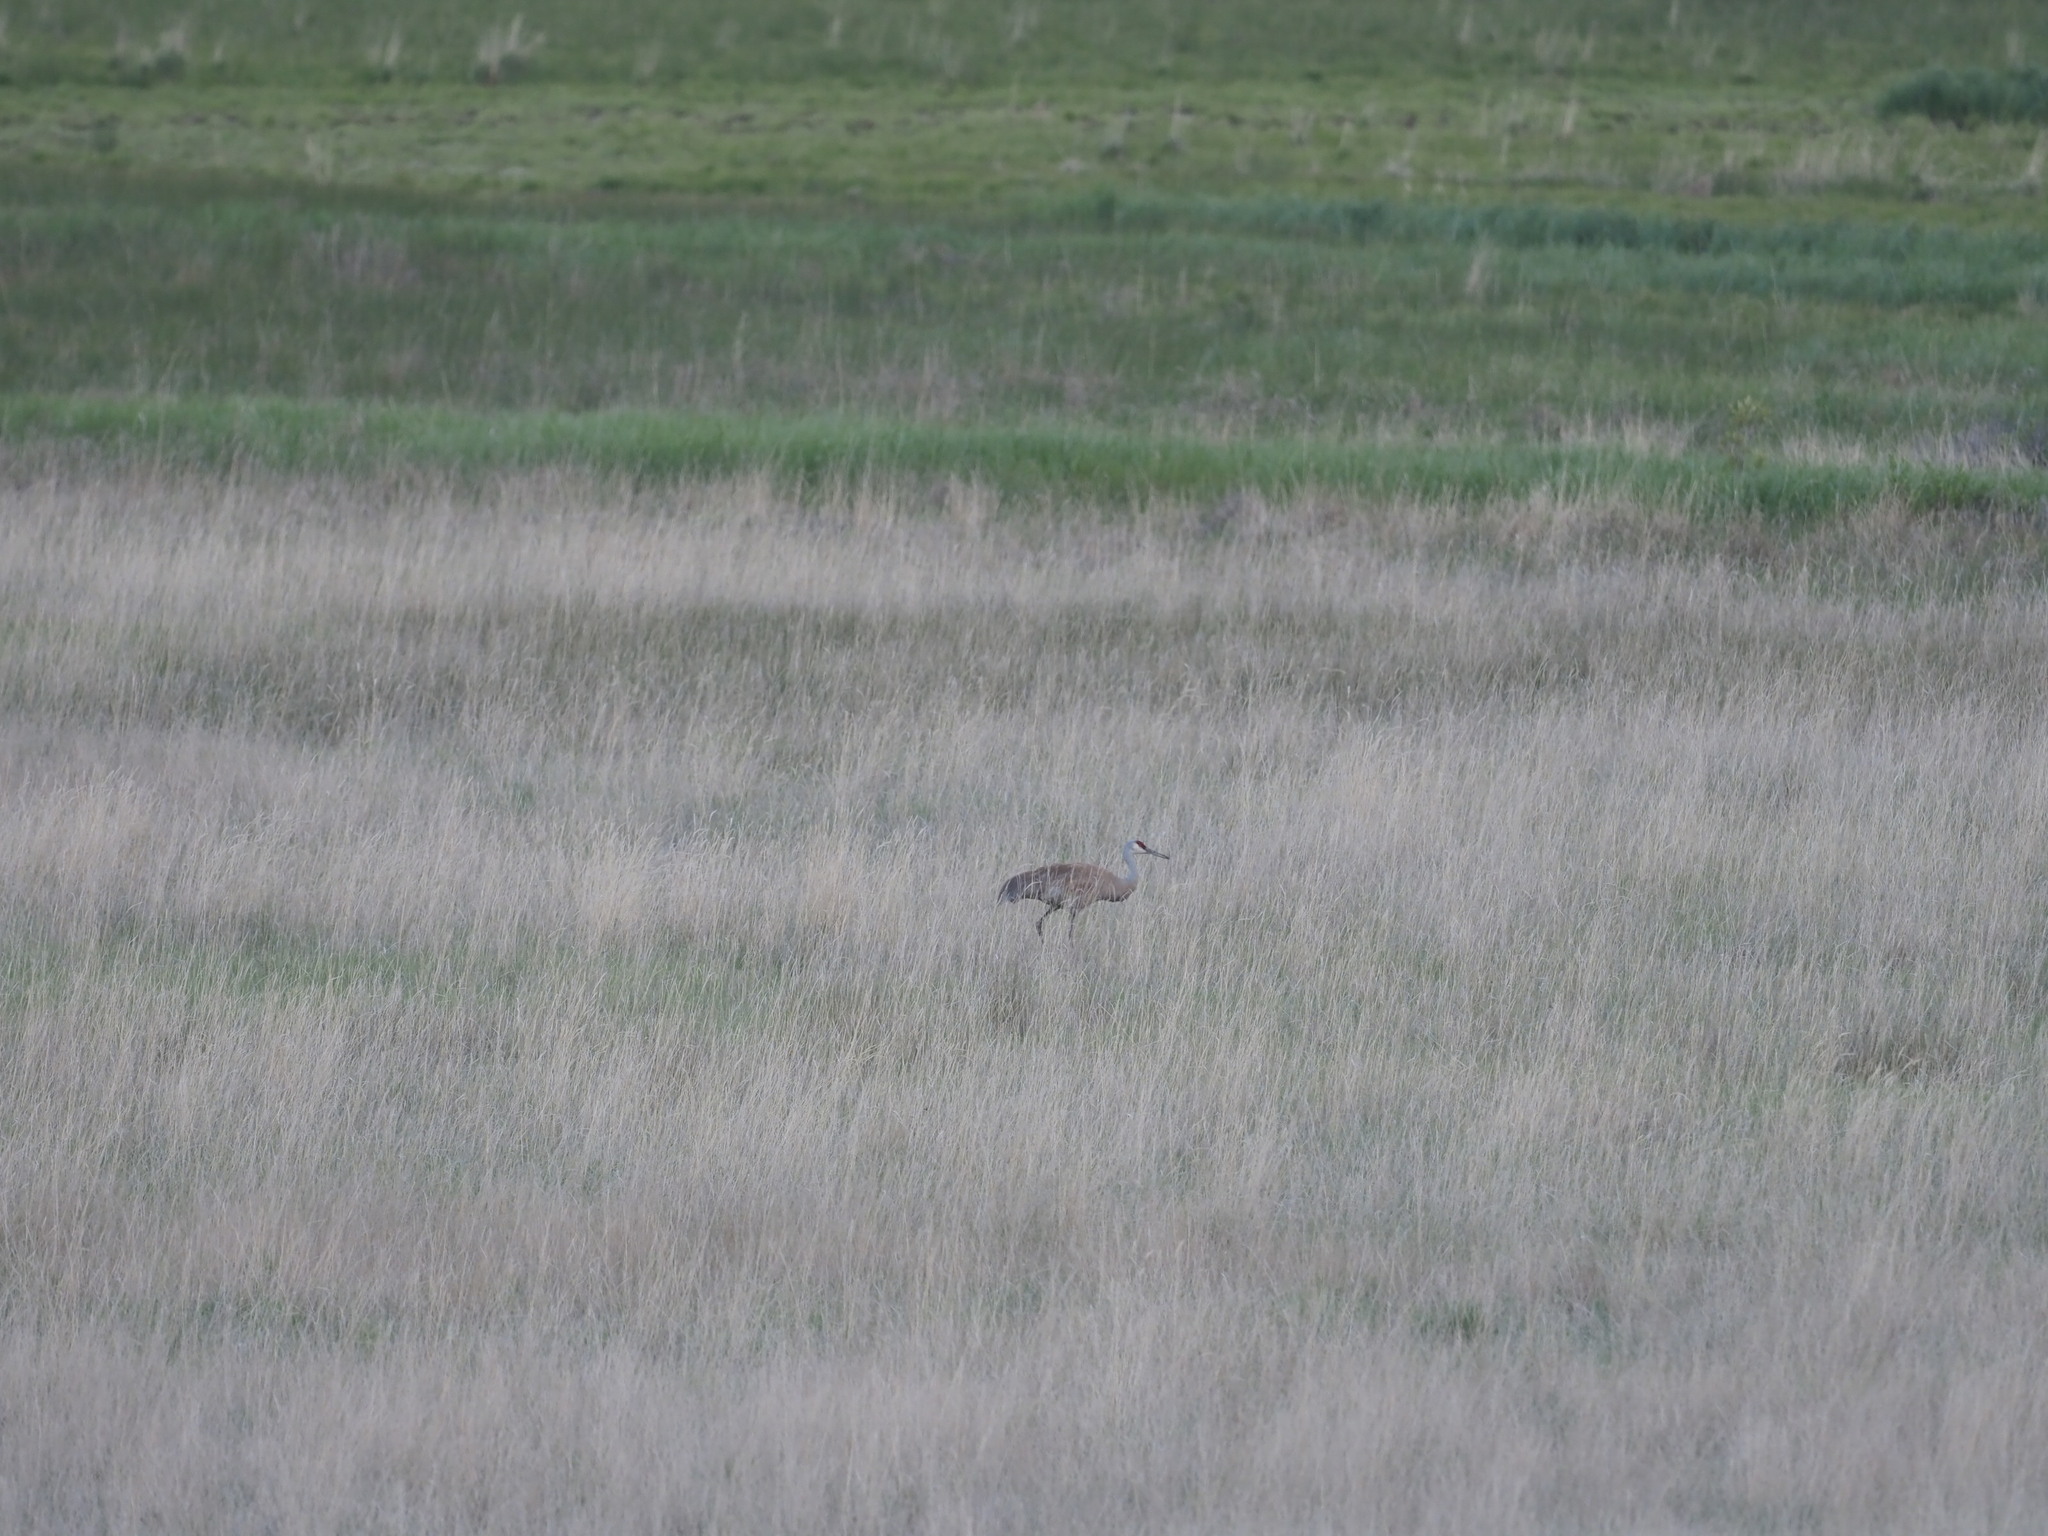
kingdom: Animalia
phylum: Chordata
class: Aves
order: Gruiformes
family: Gruidae
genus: Grus
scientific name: Grus canadensis
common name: Sandhill crane
